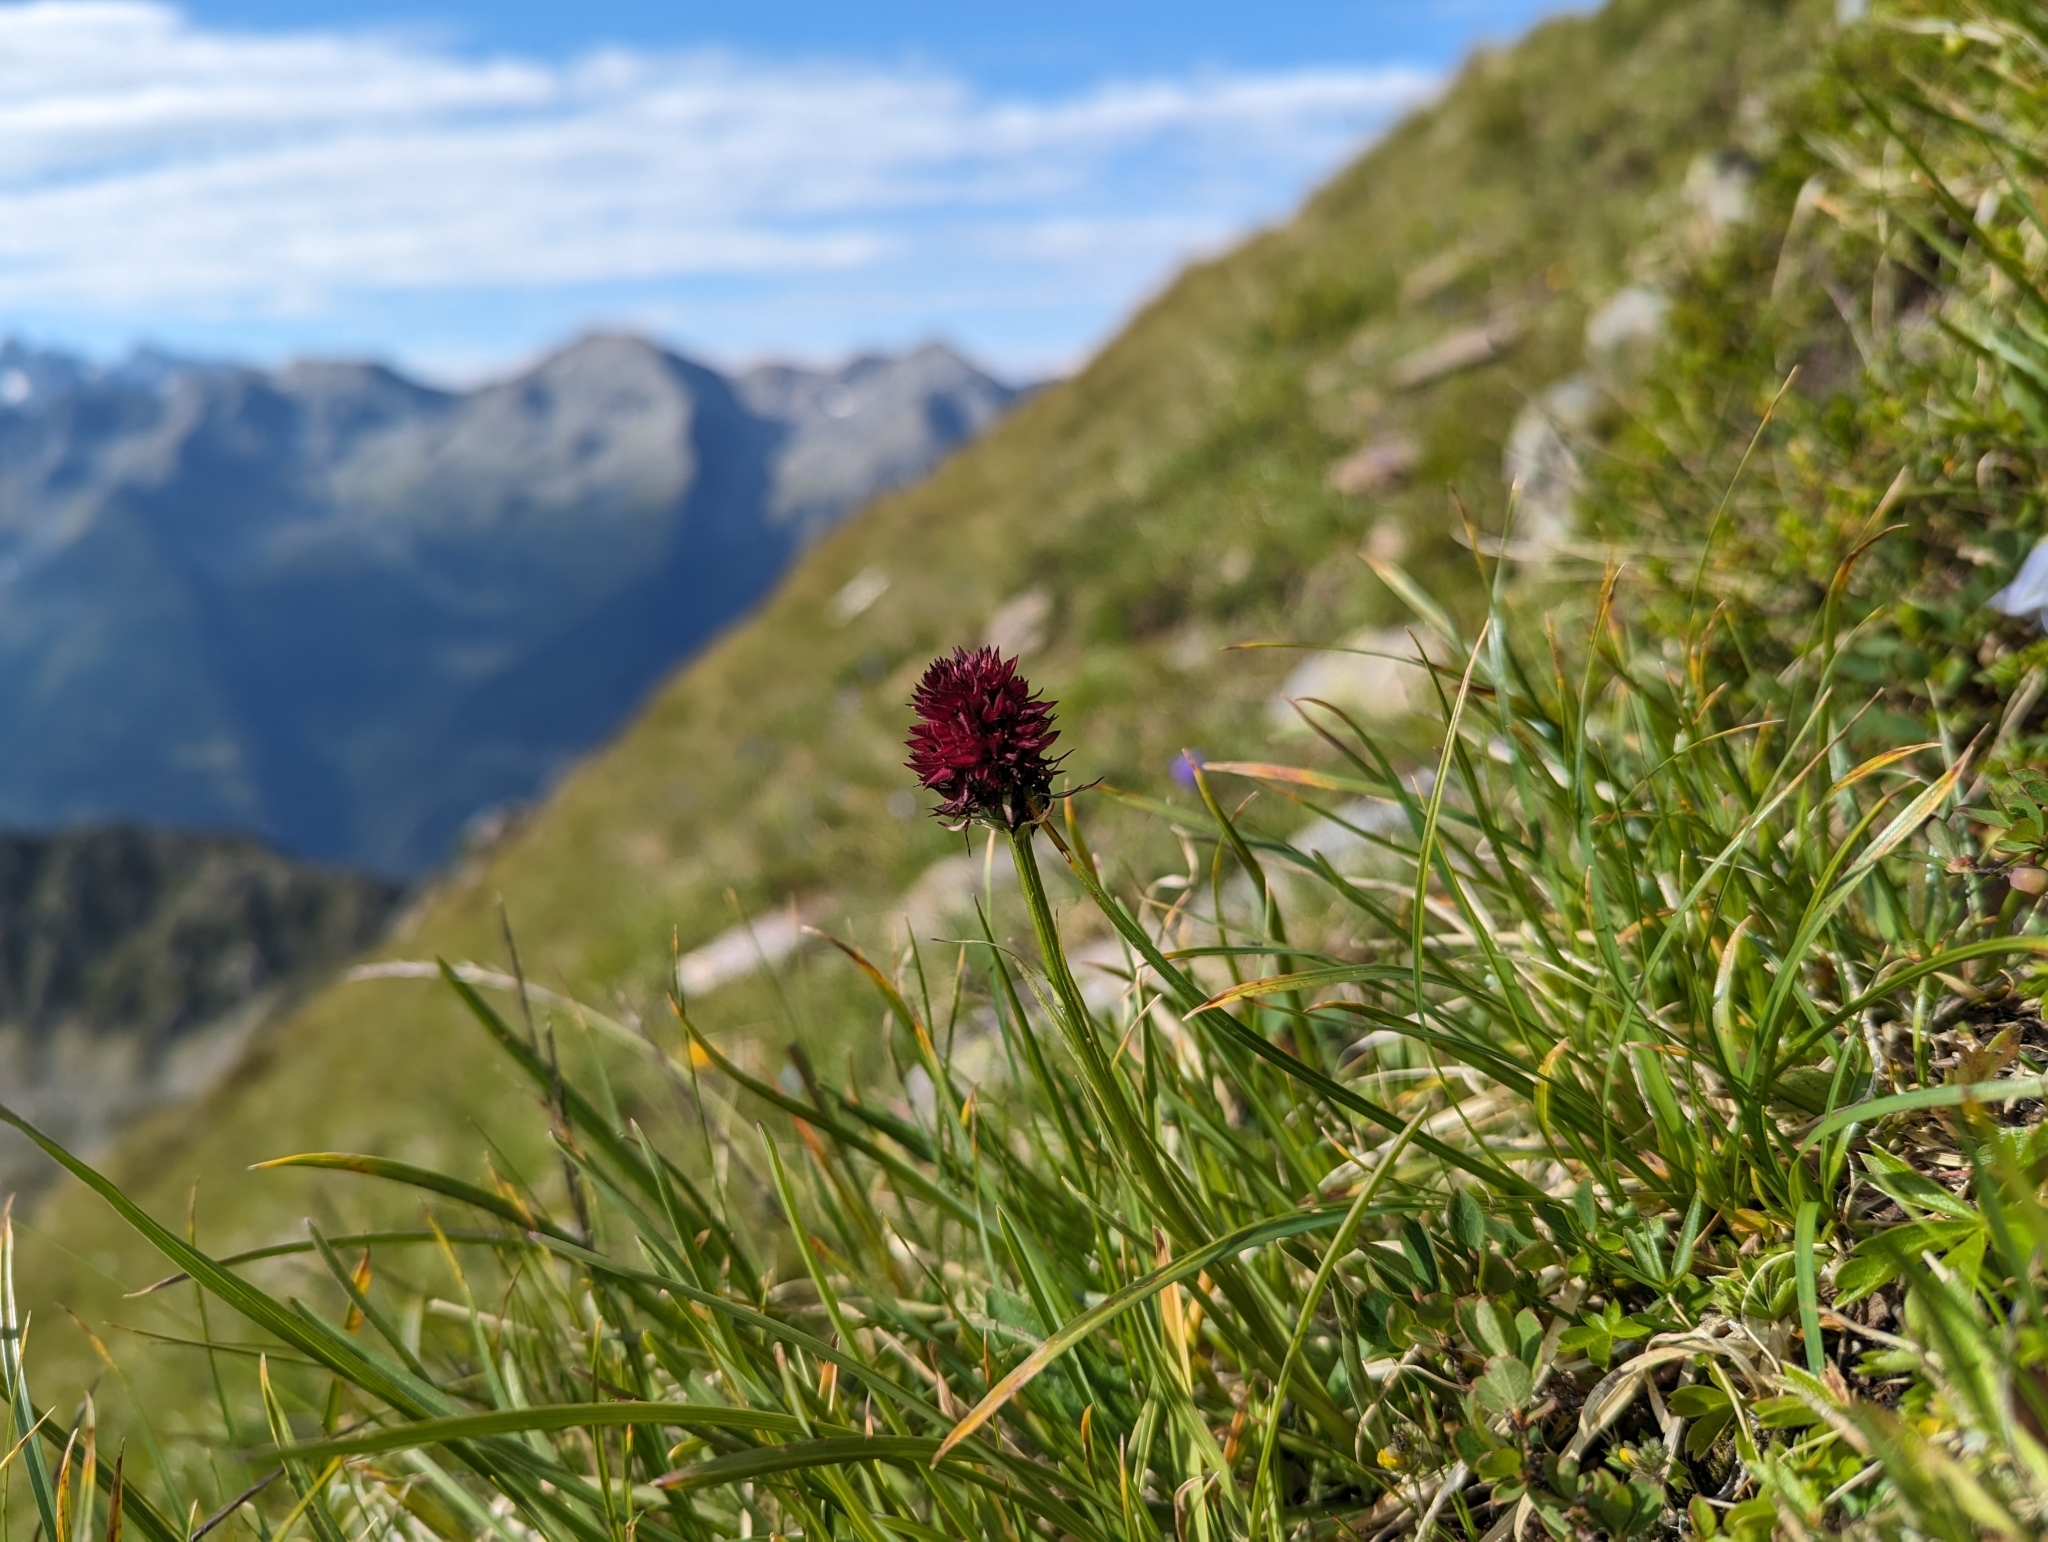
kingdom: Plantae
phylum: Tracheophyta
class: Liliopsida
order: Asparagales
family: Orchidaceae
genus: Gymnadenia
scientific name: Gymnadenia rhellicani
